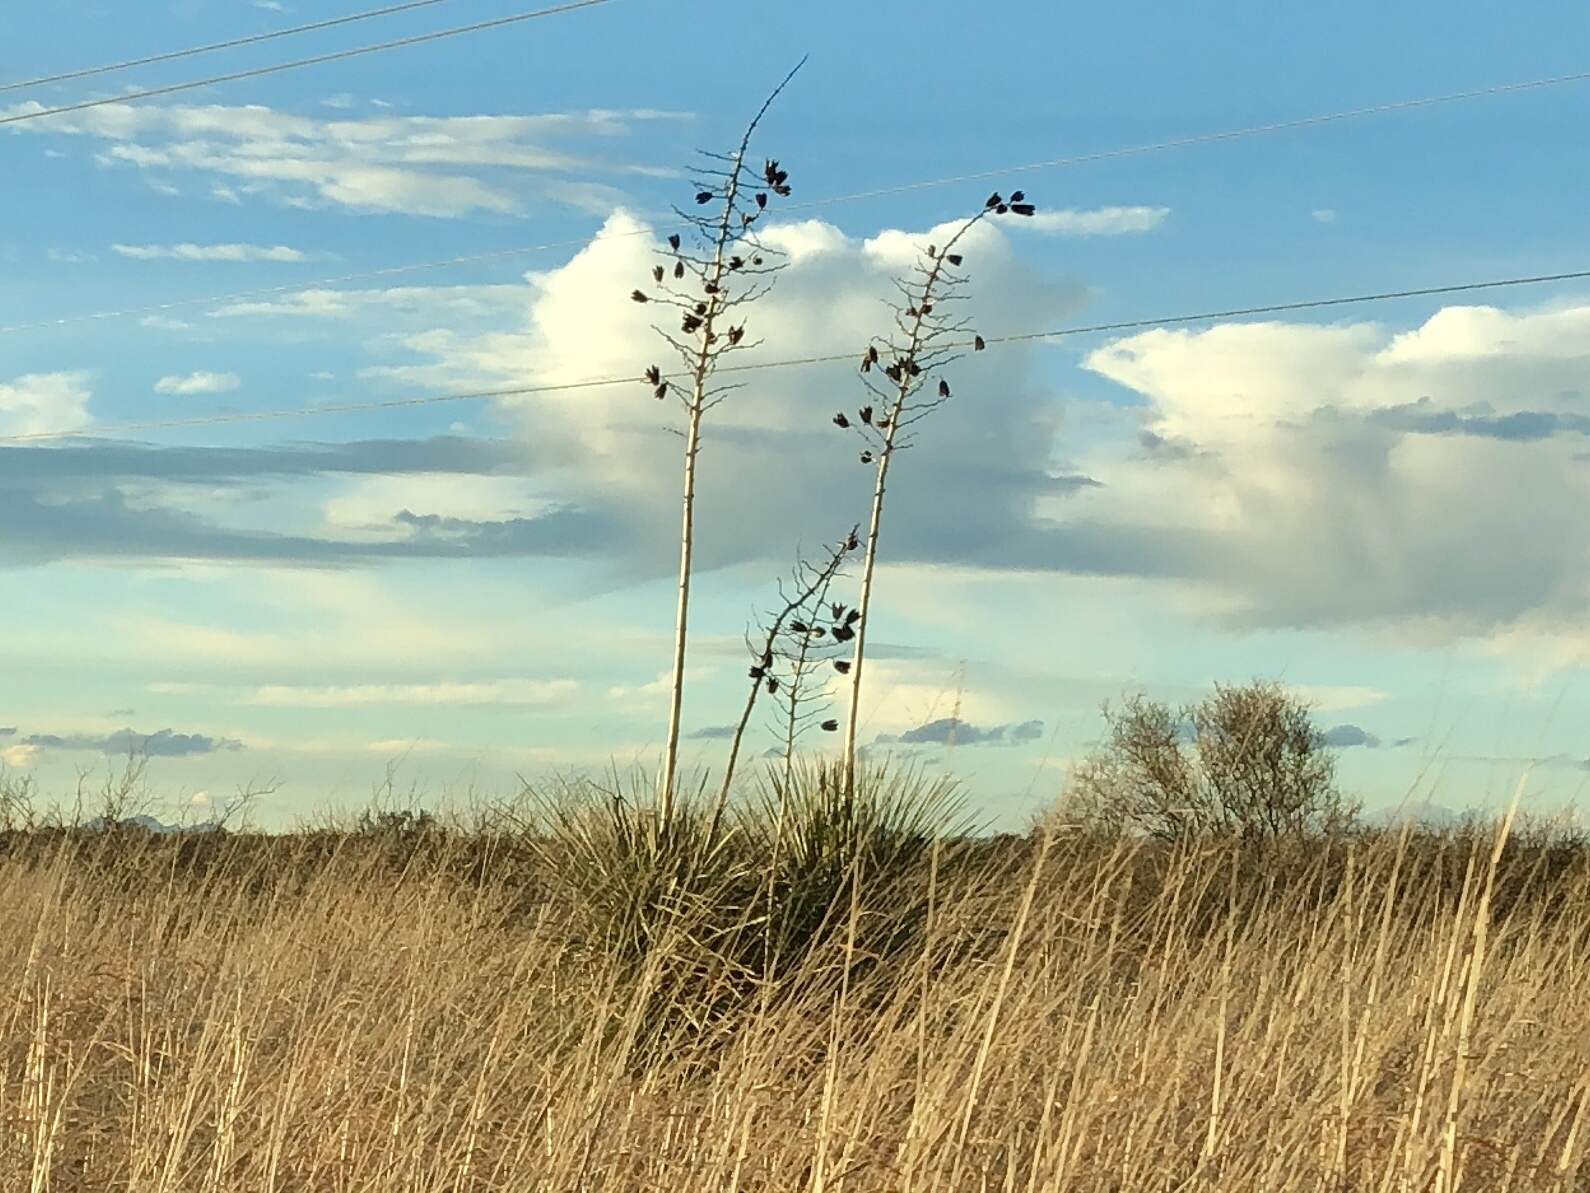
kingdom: Plantae
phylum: Tracheophyta
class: Liliopsida
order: Asparagales
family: Asparagaceae
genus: Yucca
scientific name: Yucca elata
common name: Palmella
